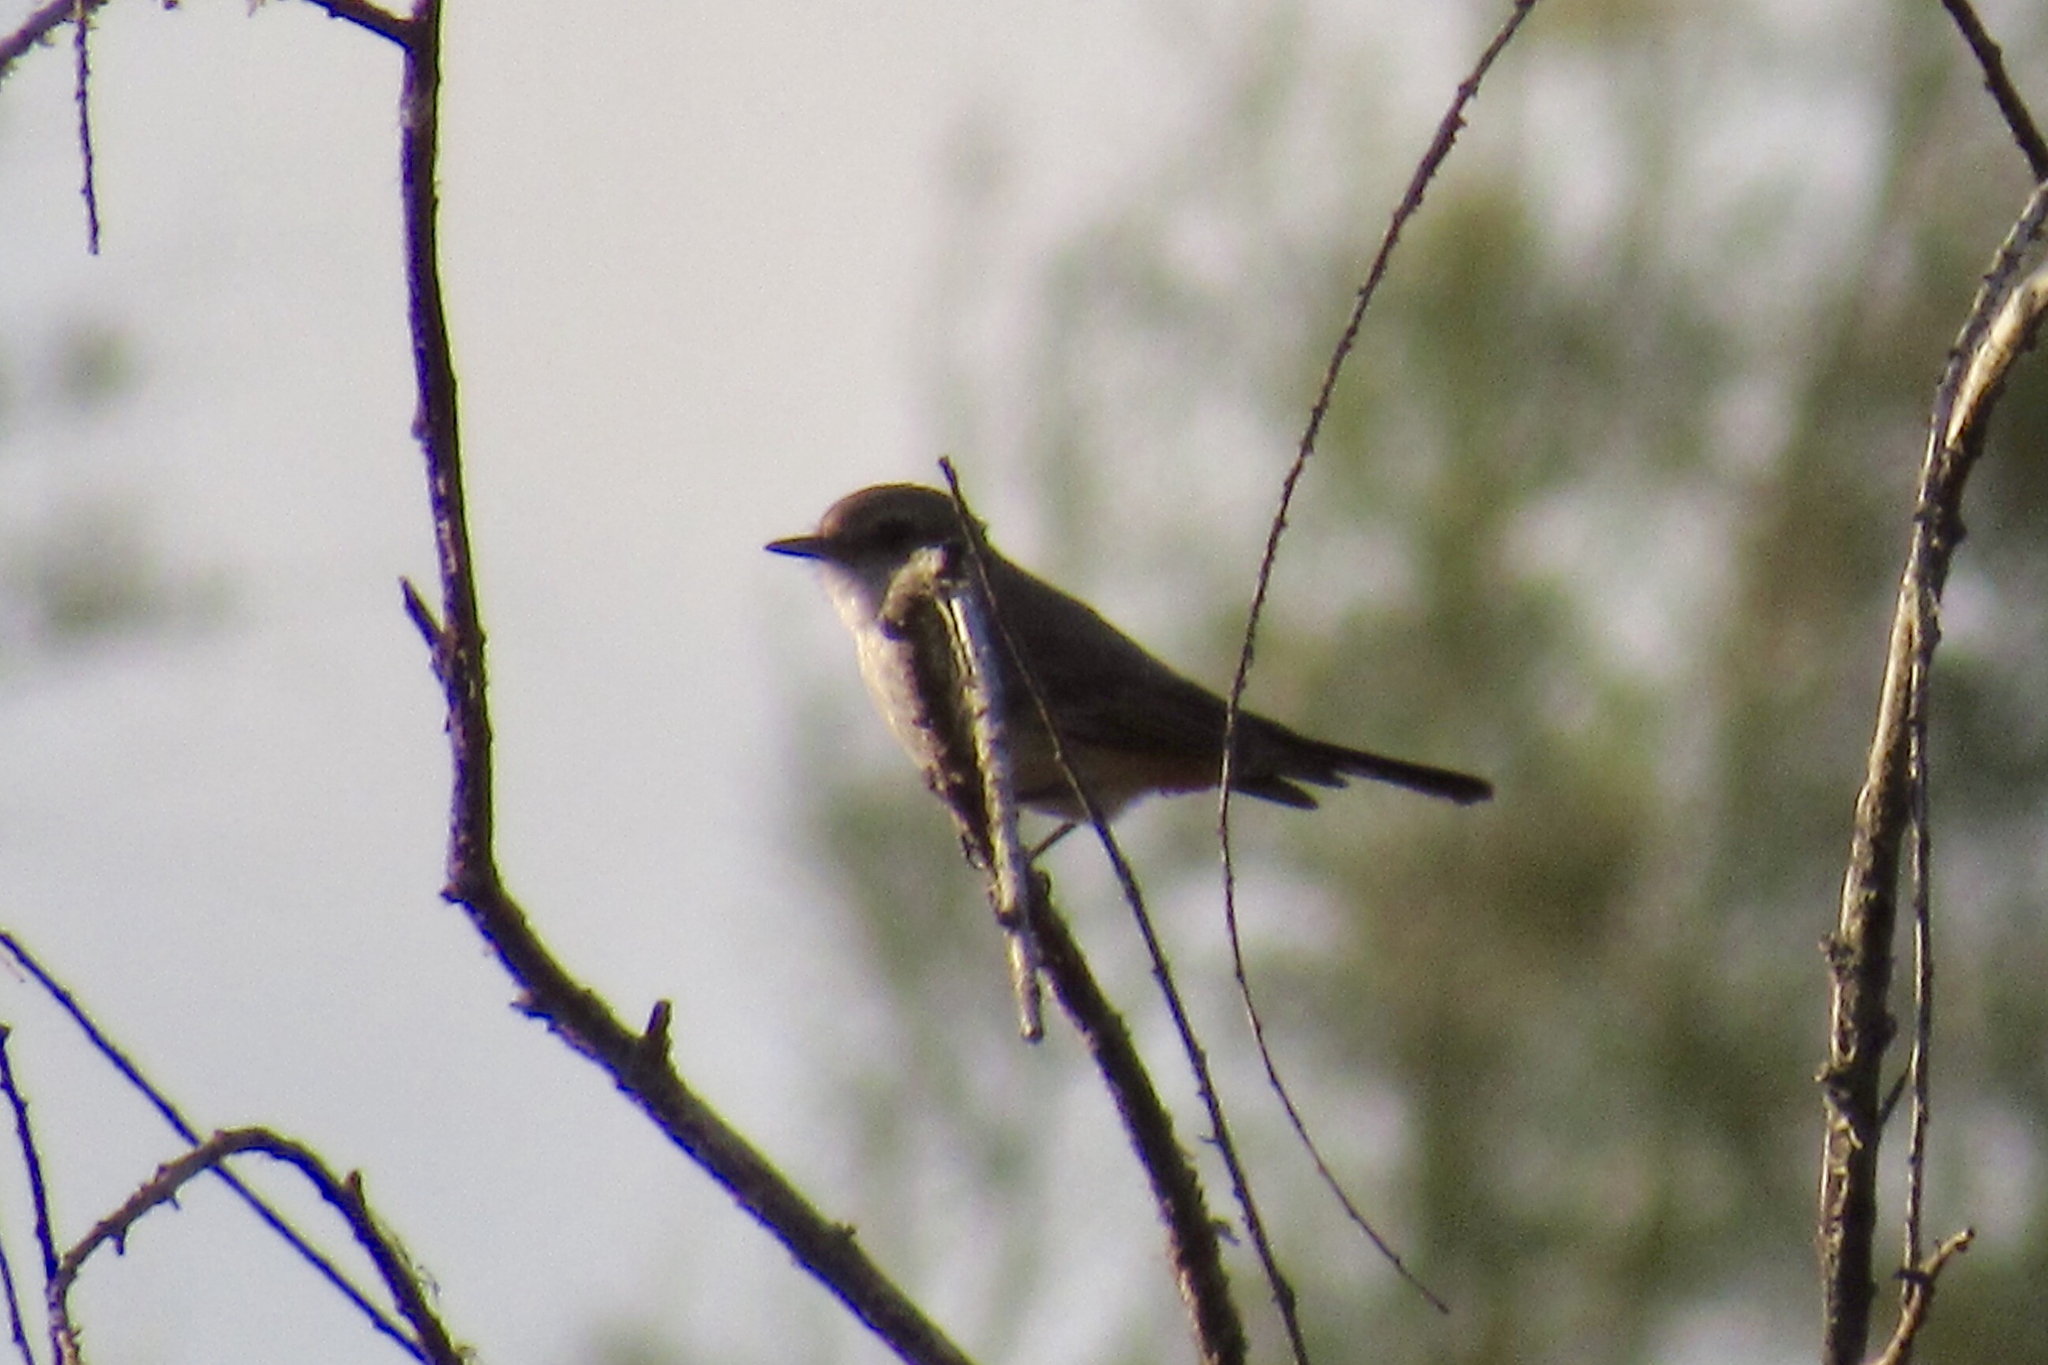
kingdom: Animalia
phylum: Chordata
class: Aves
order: Passeriformes
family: Tyrannidae
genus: Pyrocephalus
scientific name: Pyrocephalus rubinus
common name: Vermilion flycatcher
